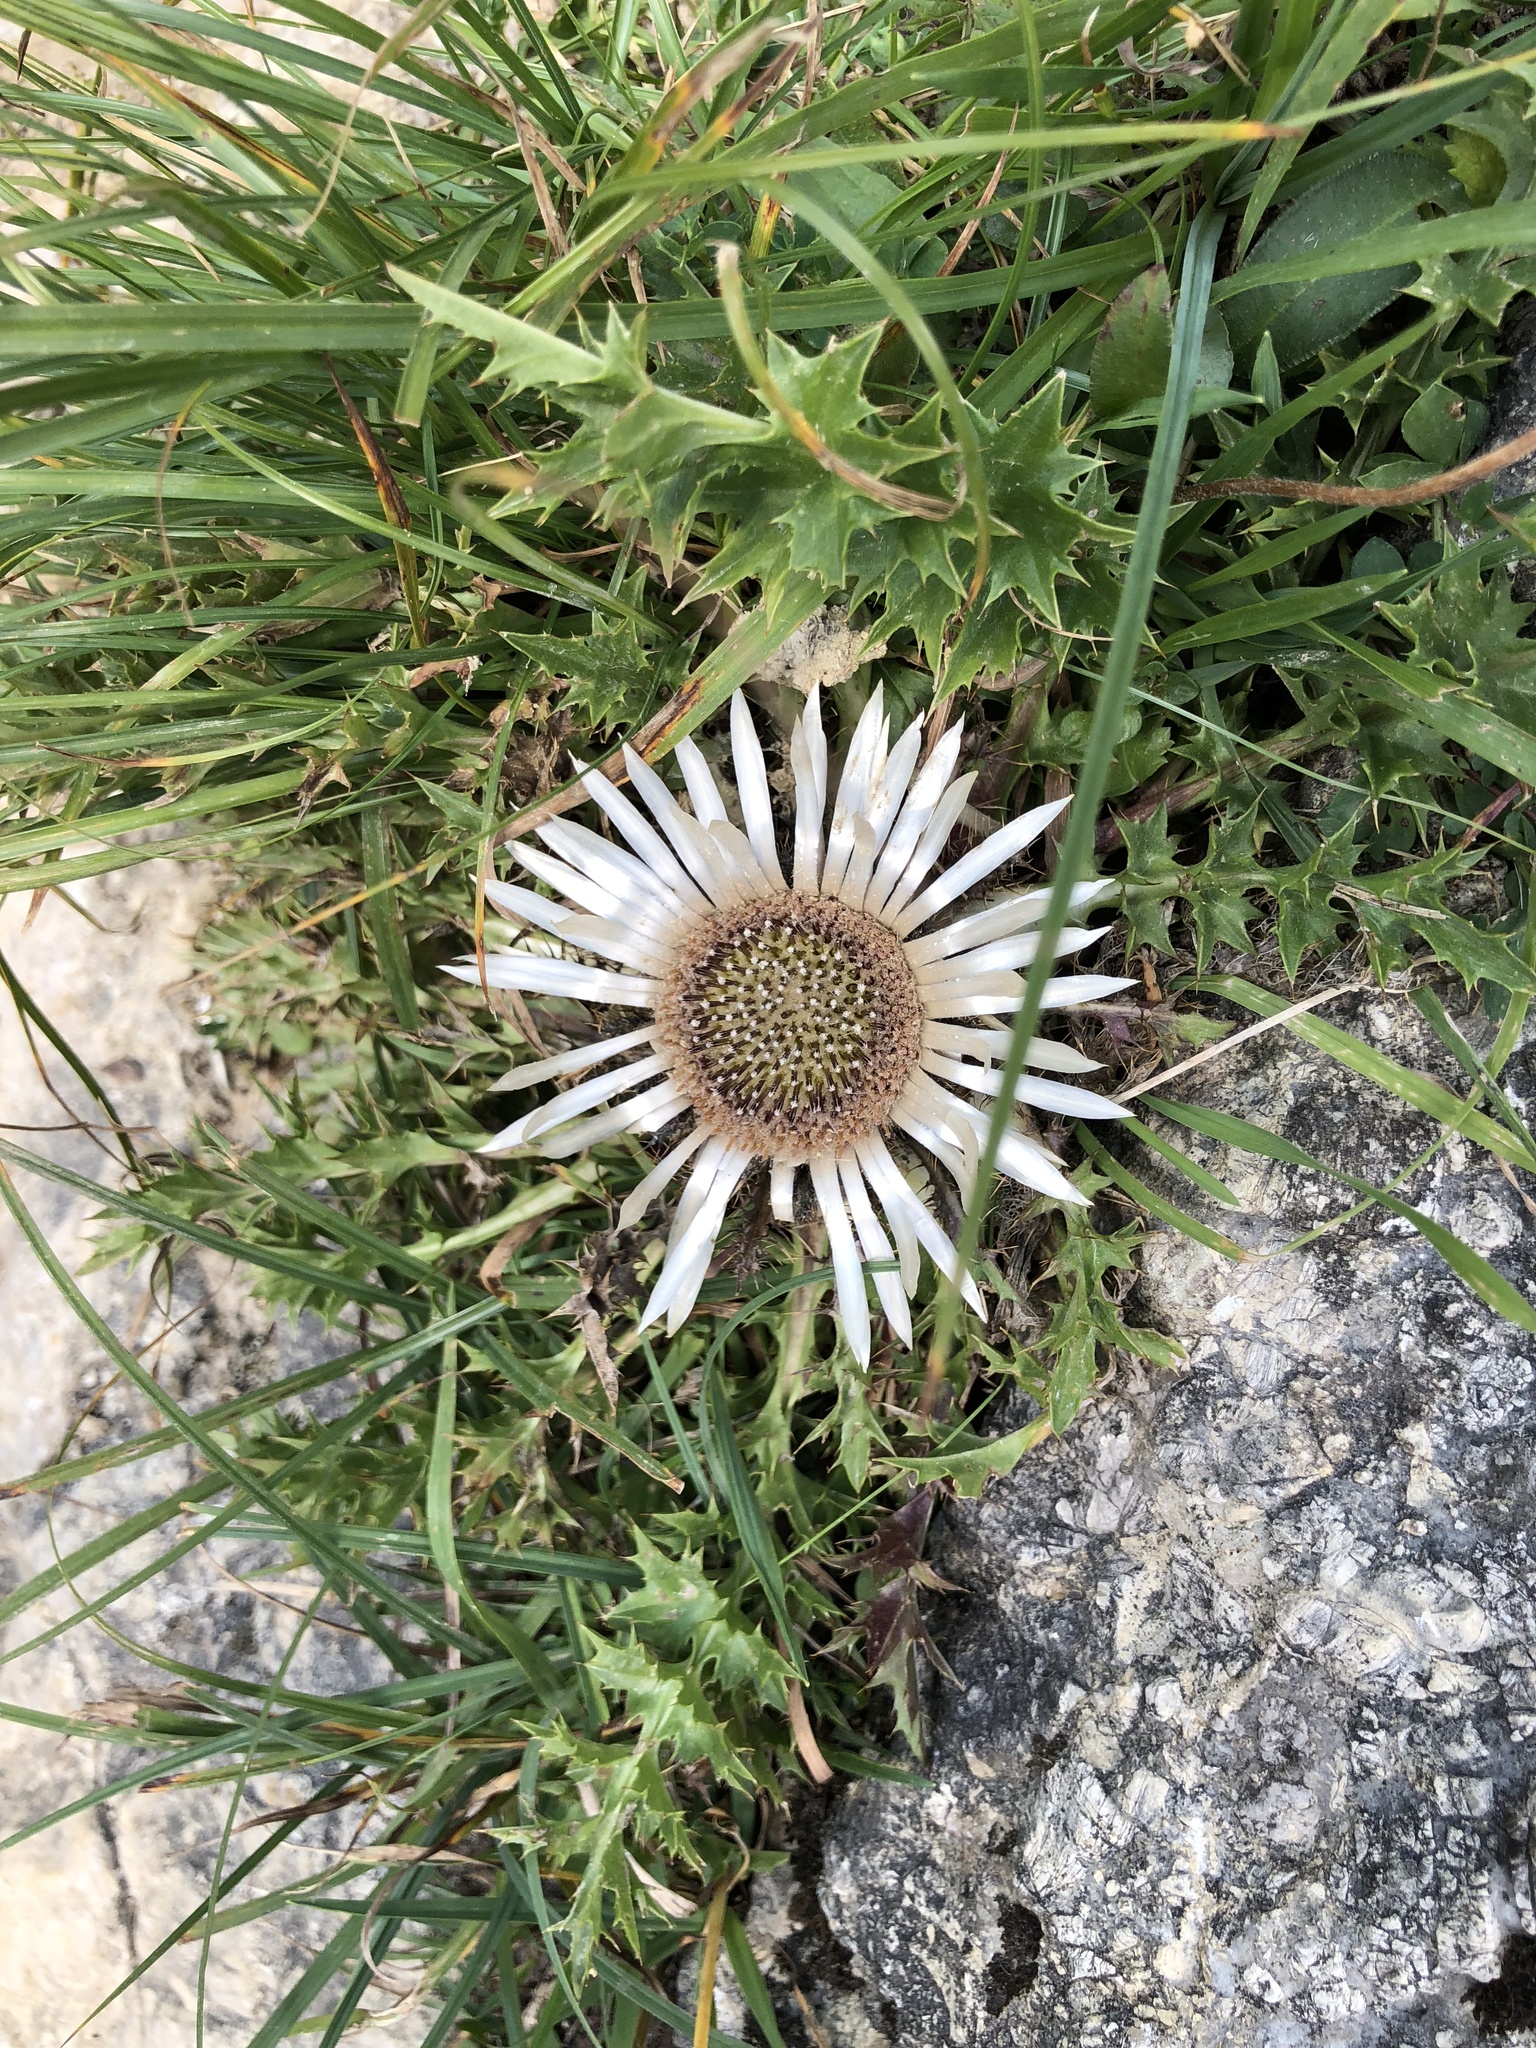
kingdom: Plantae
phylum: Tracheophyta
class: Magnoliopsida
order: Asterales
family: Asteraceae
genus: Carlina
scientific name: Carlina acaulis
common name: Stemless carline thistle
